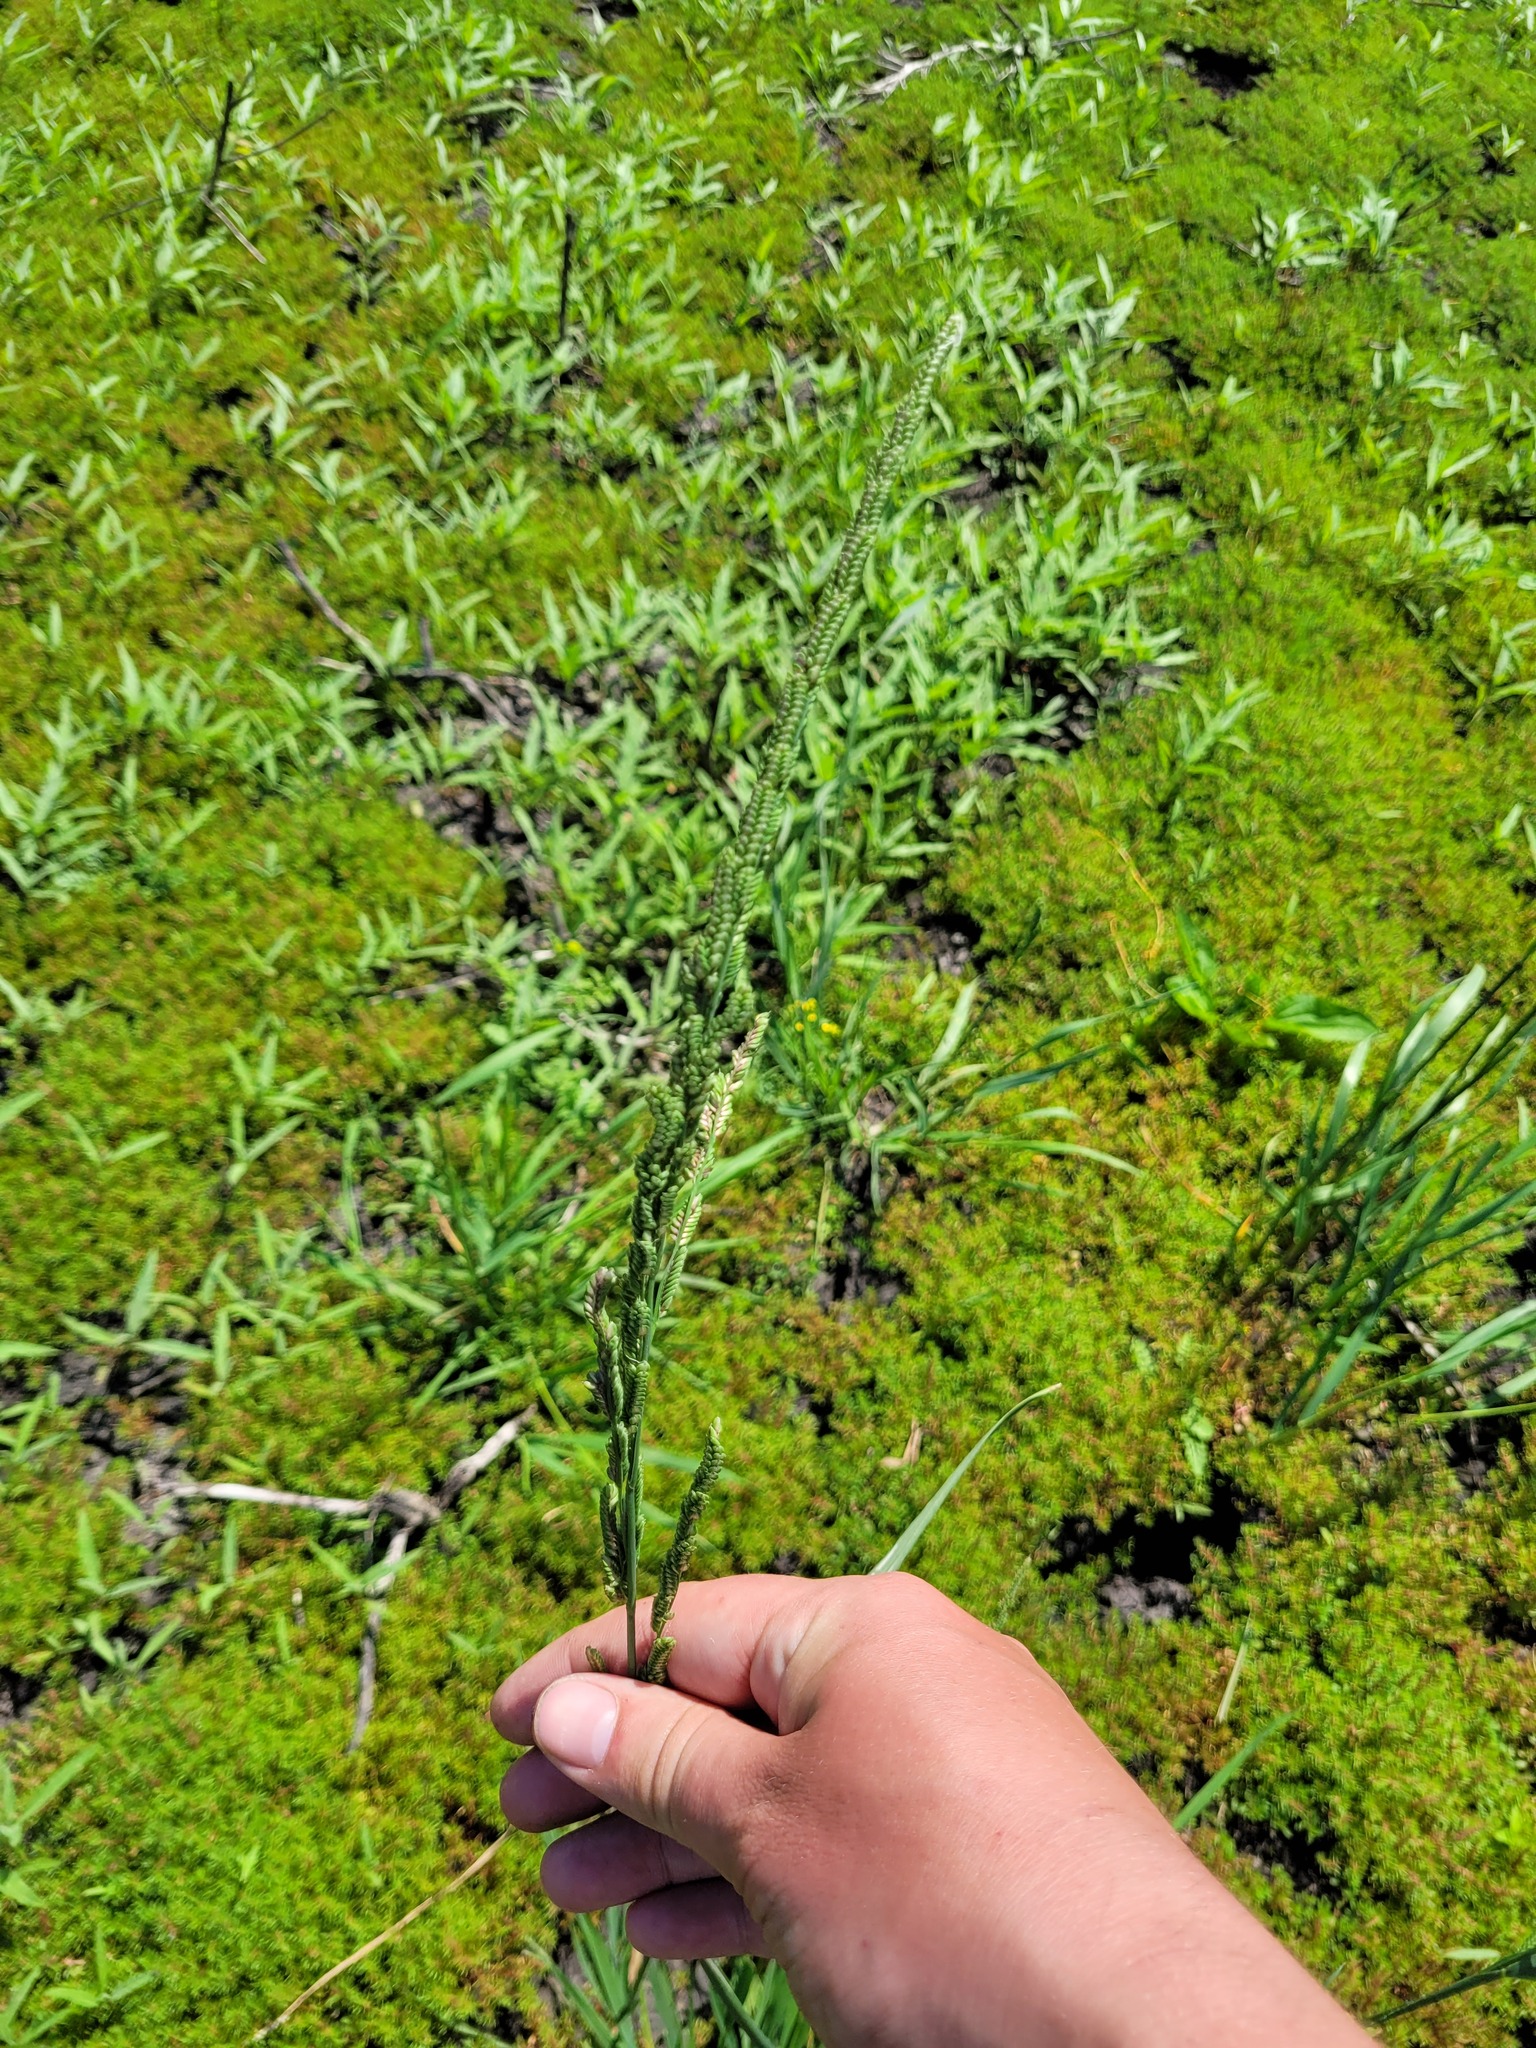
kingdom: Plantae
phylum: Tracheophyta
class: Liliopsida
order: Poales
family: Poaceae
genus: Beckmannia
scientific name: Beckmannia eruciformis
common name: European slough-grass
